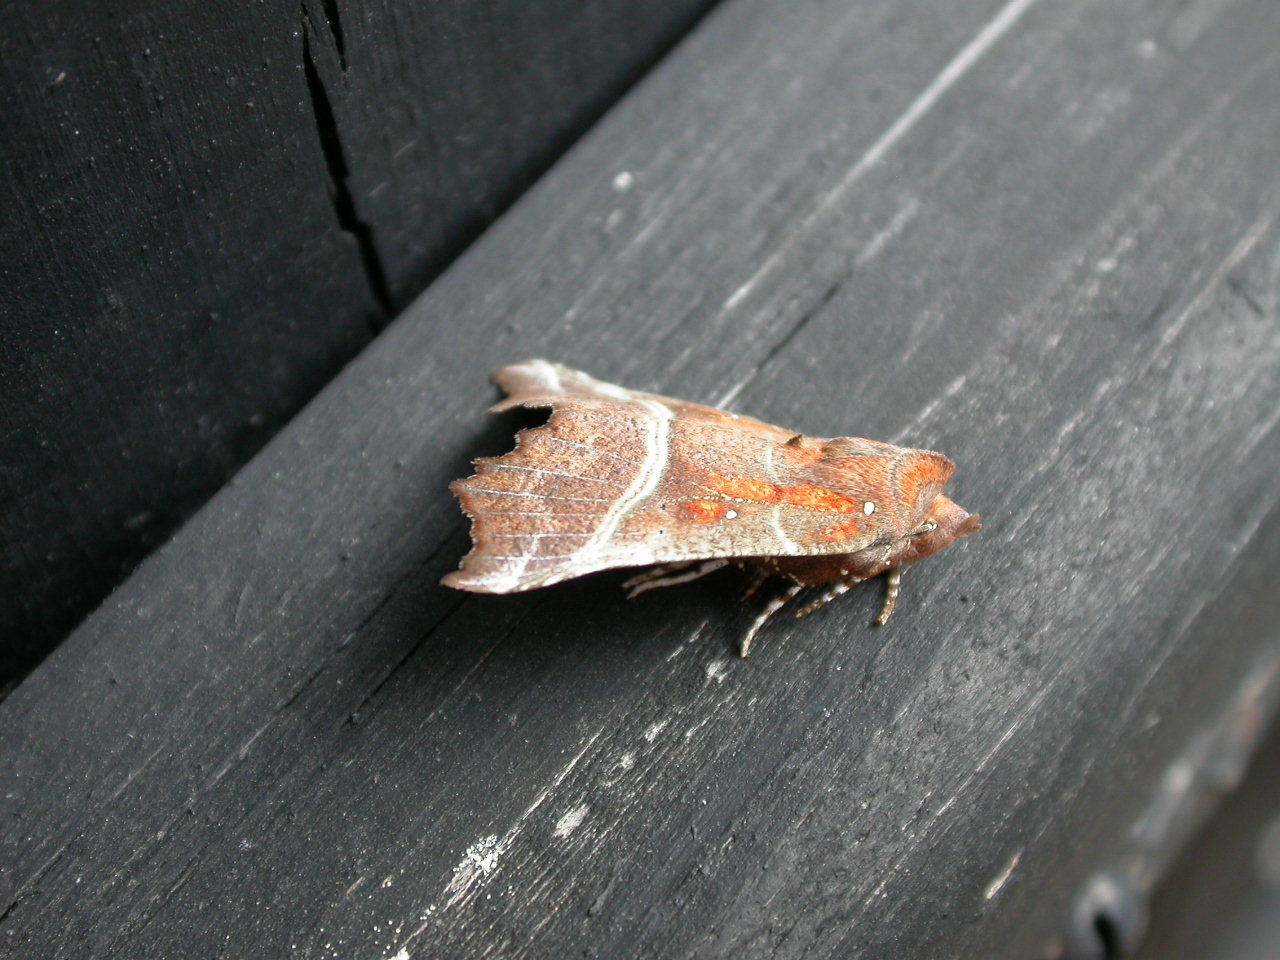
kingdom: Animalia
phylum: Arthropoda
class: Insecta
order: Lepidoptera
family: Erebidae
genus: Scoliopteryx
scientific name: Scoliopteryx libatrix
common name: Herald
